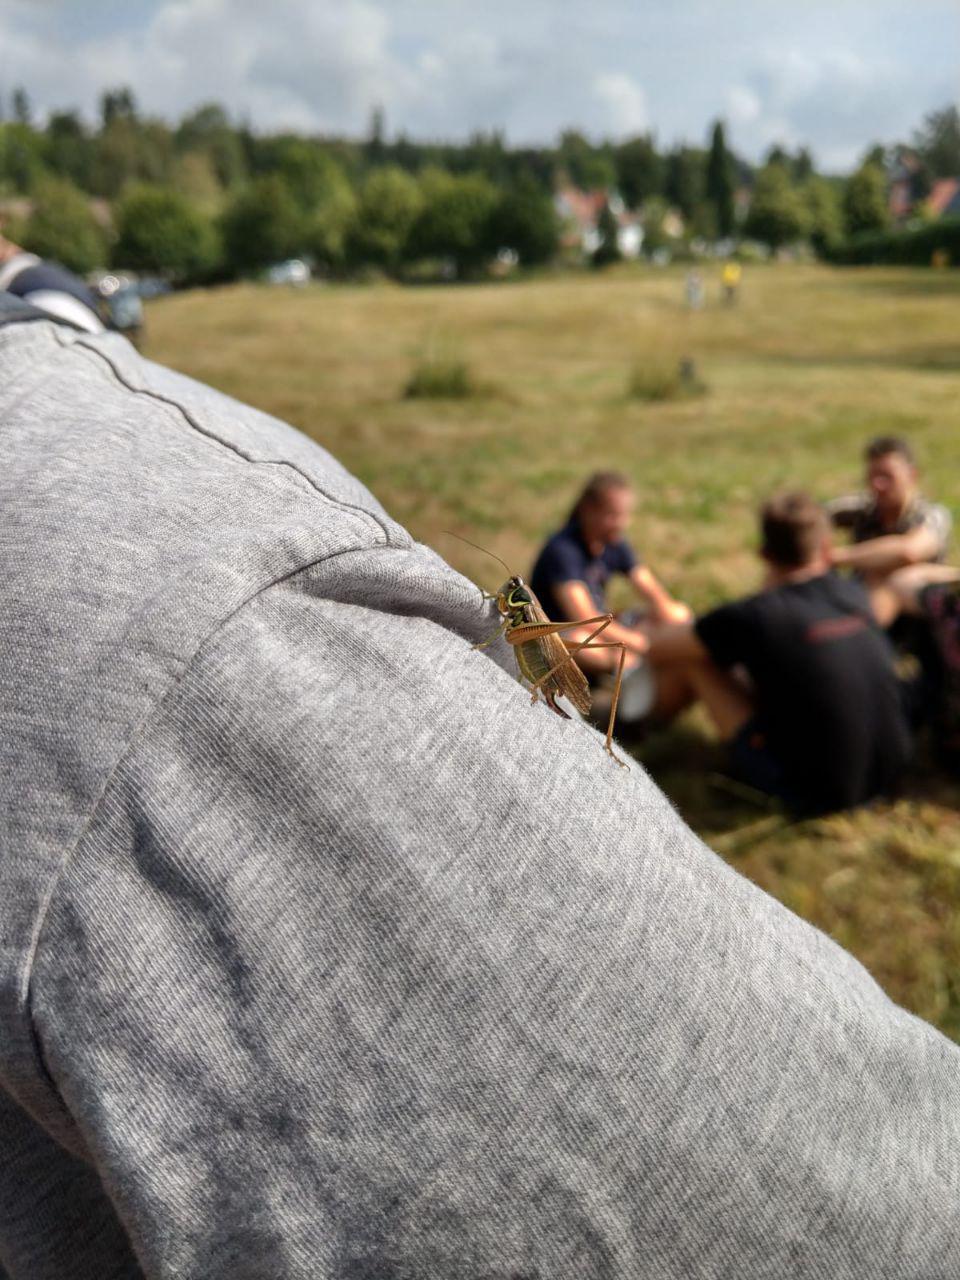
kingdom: Animalia
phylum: Arthropoda
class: Insecta
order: Orthoptera
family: Tettigoniidae
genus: Roeseliana
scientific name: Roeseliana roeselii
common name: Roesel's bush cricket
